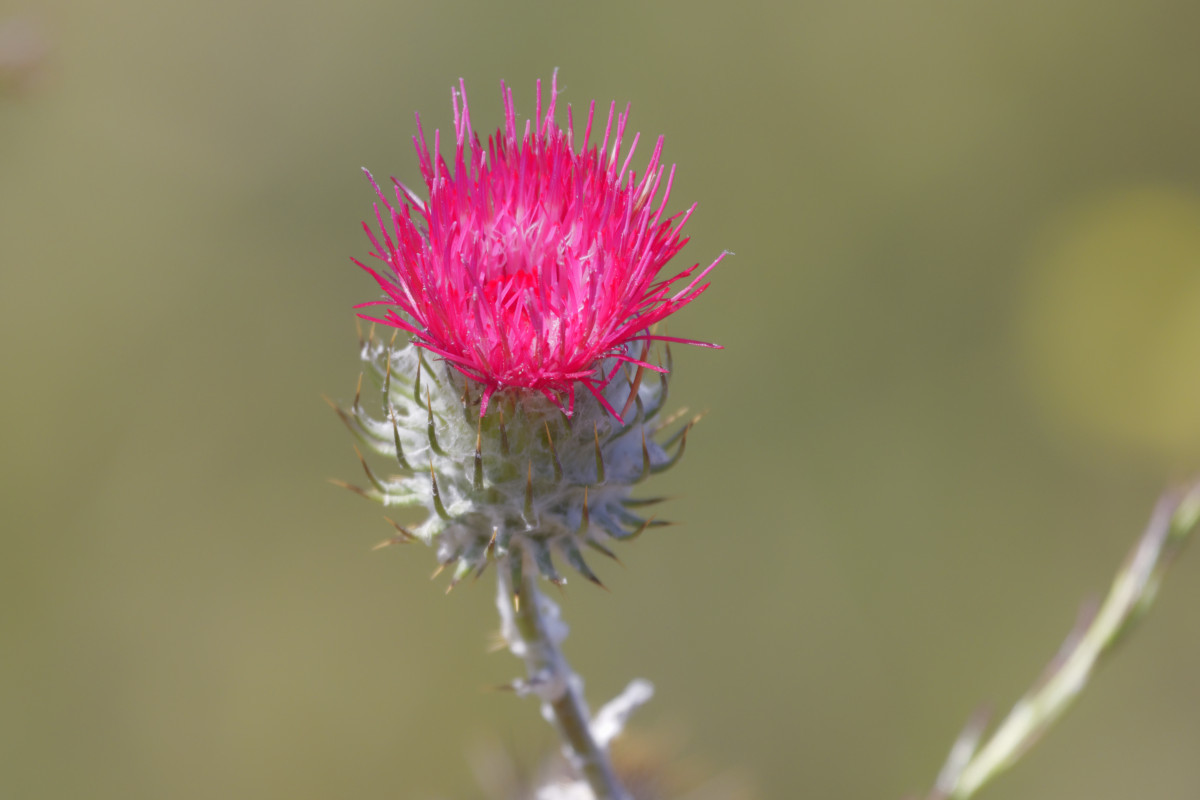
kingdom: Plantae
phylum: Tracheophyta
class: Magnoliopsida
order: Asterales
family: Asteraceae
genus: Cirsium
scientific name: Cirsium occidentale
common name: Western thistle
